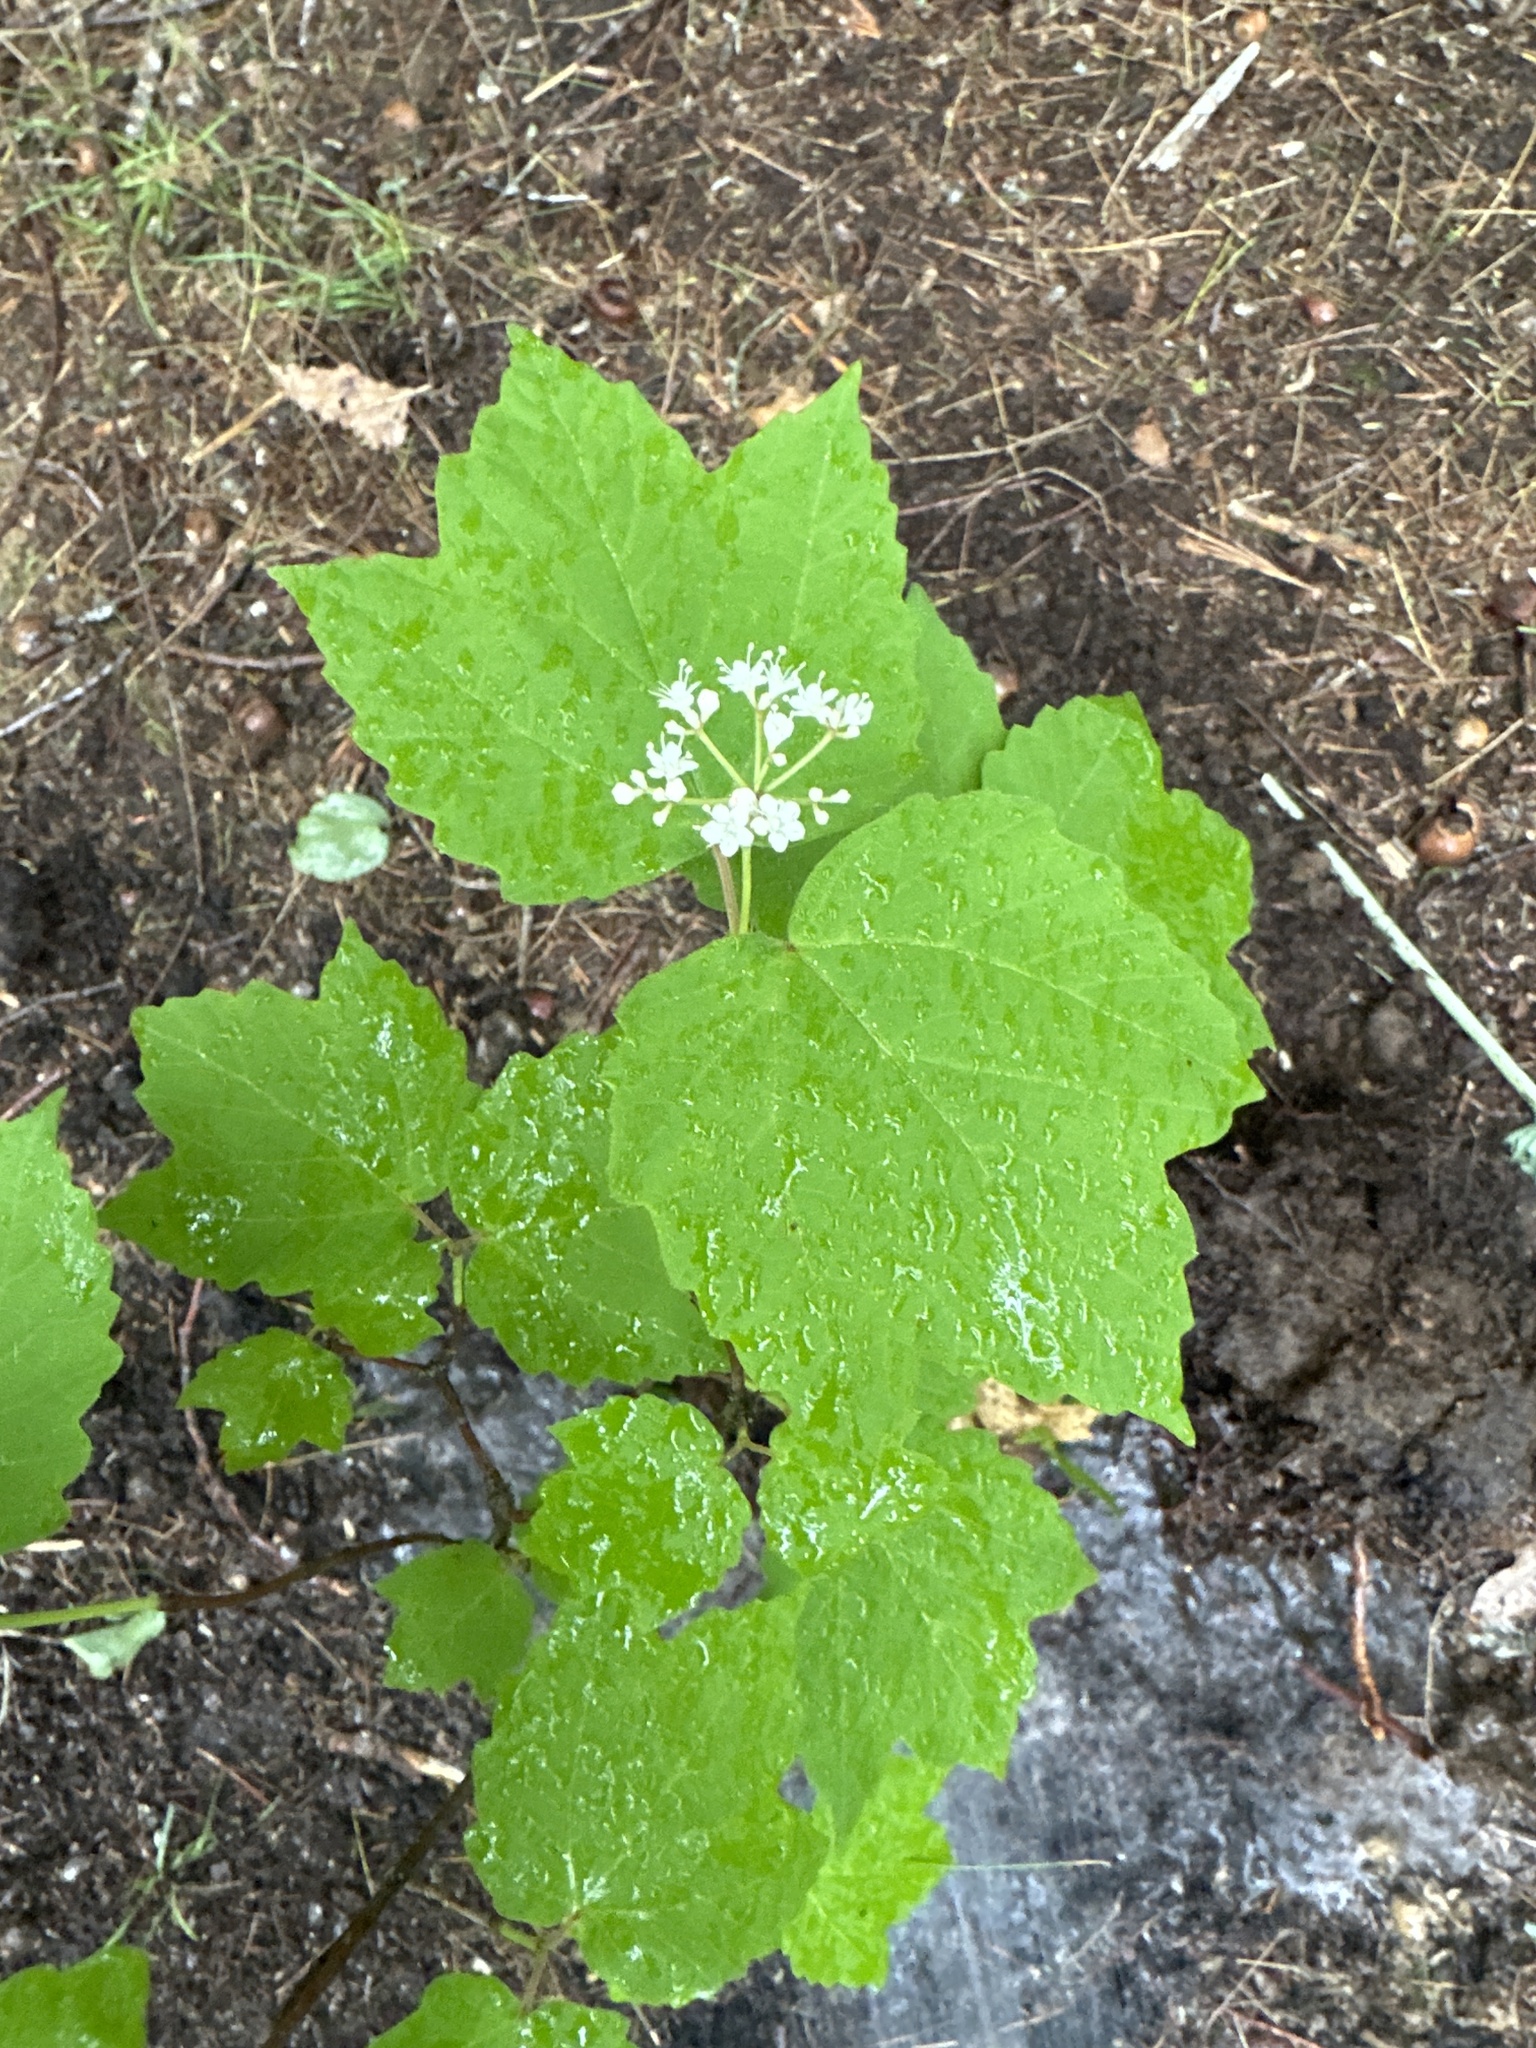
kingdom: Plantae
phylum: Tracheophyta
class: Magnoliopsida
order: Dipsacales
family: Viburnaceae
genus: Viburnum
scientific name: Viburnum acerifolium
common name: Dockmackie
